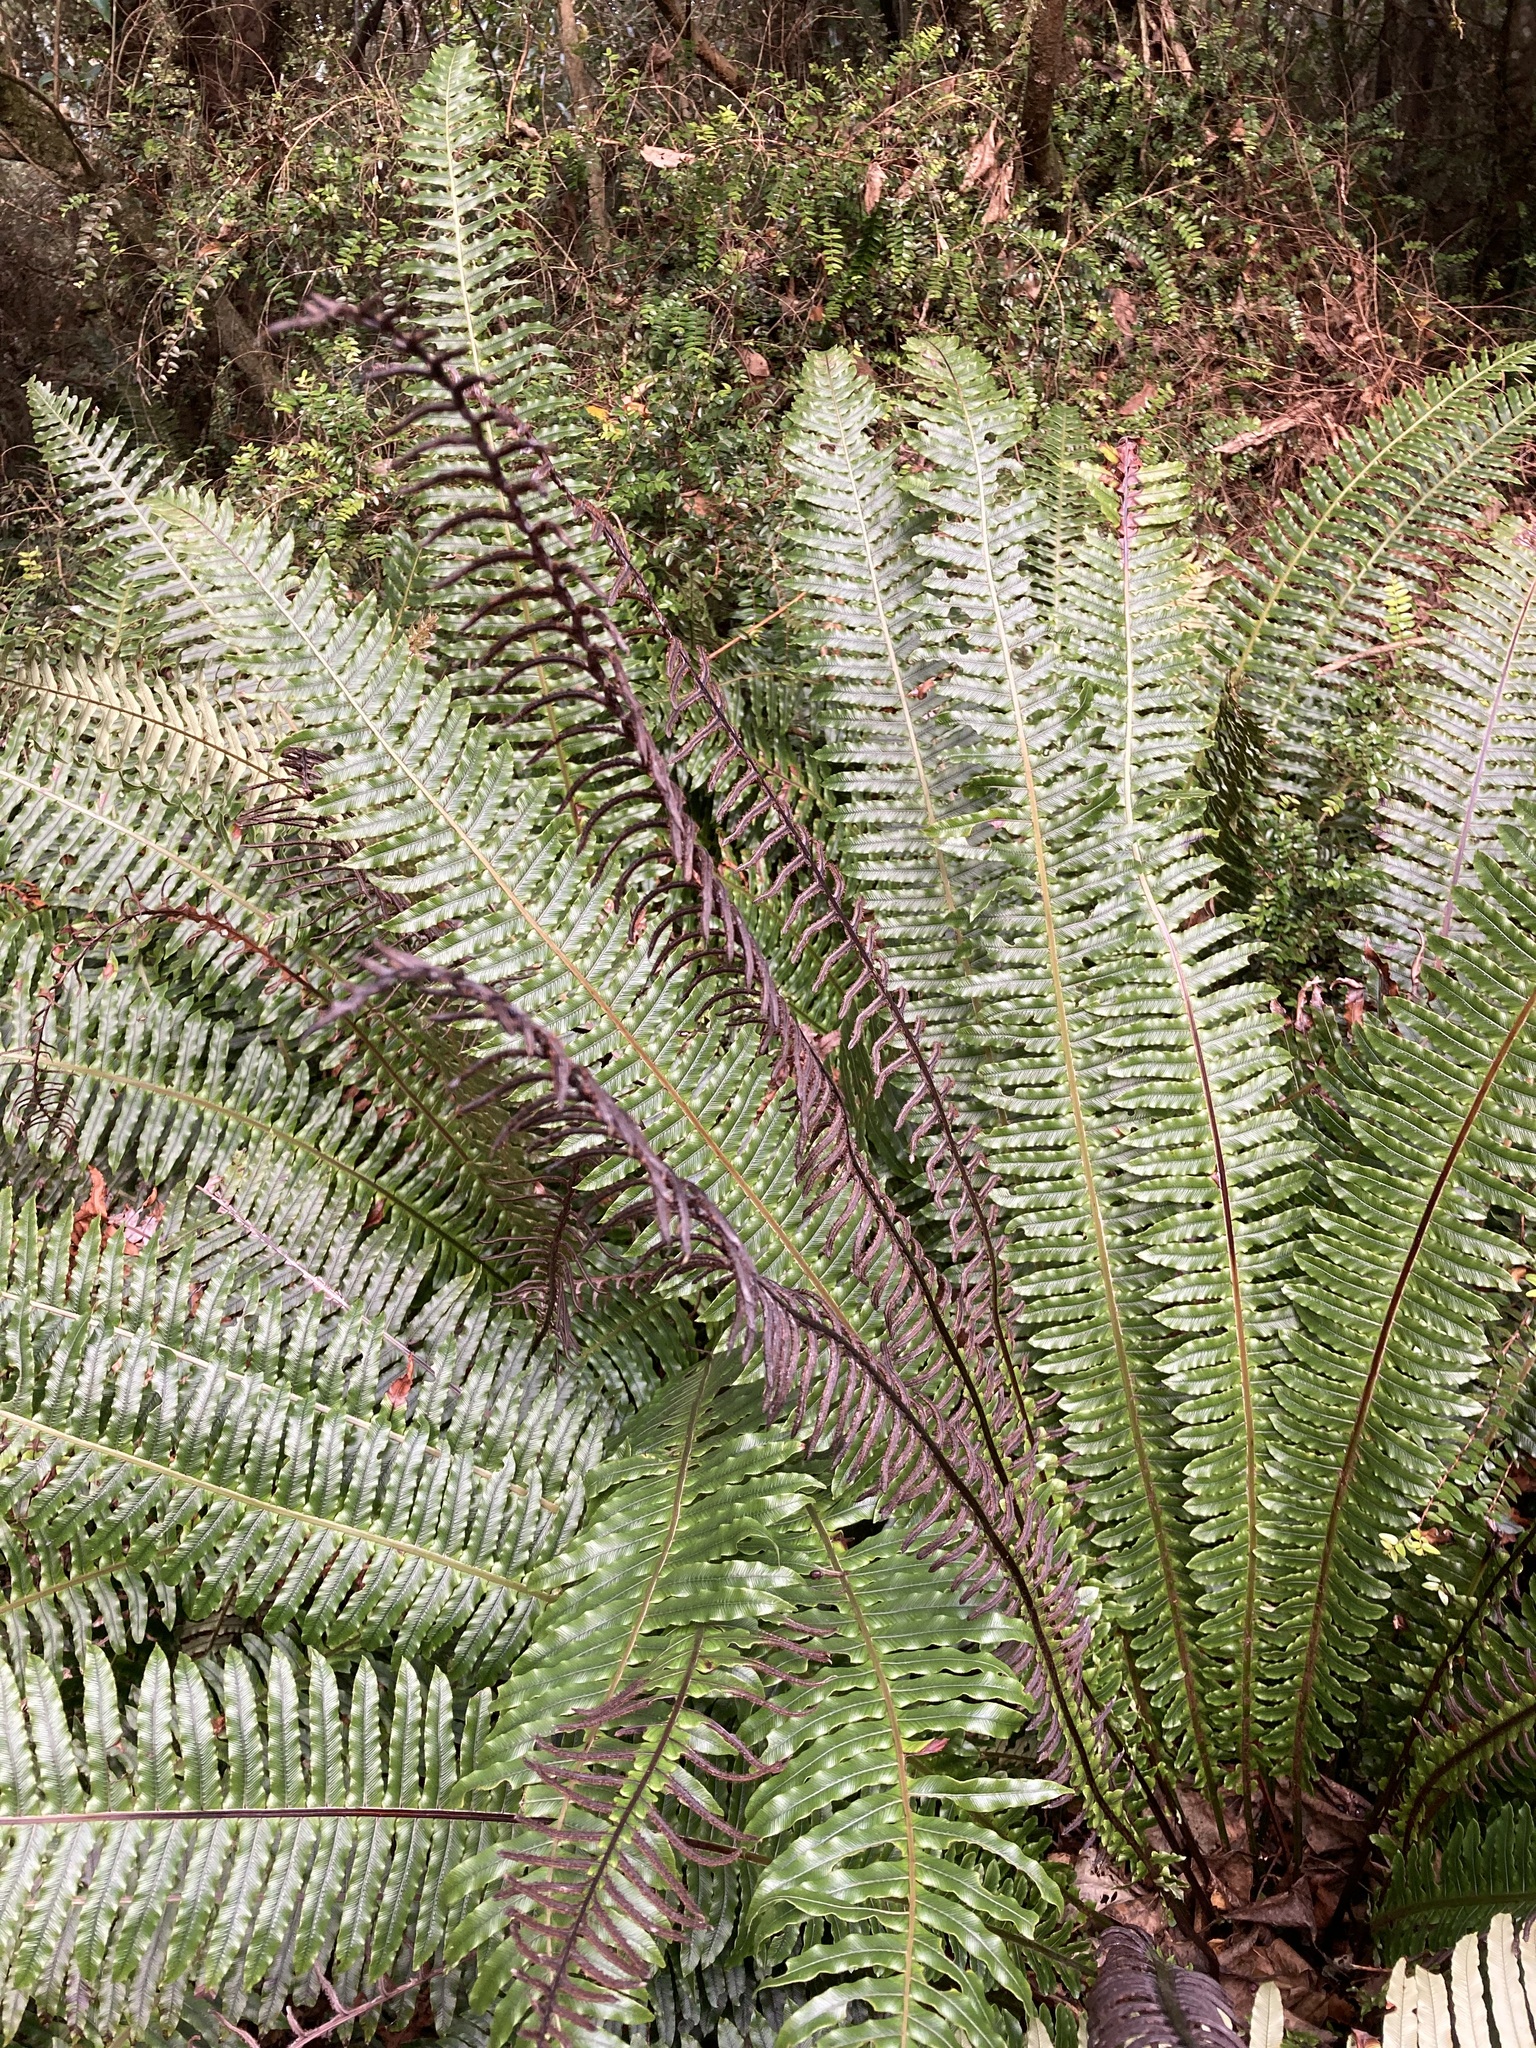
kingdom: Plantae
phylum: Tracheophyta
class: Polypodiopsida
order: Polypodiales
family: Blechnaceae
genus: Lomaria
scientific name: Lomaria discolor
